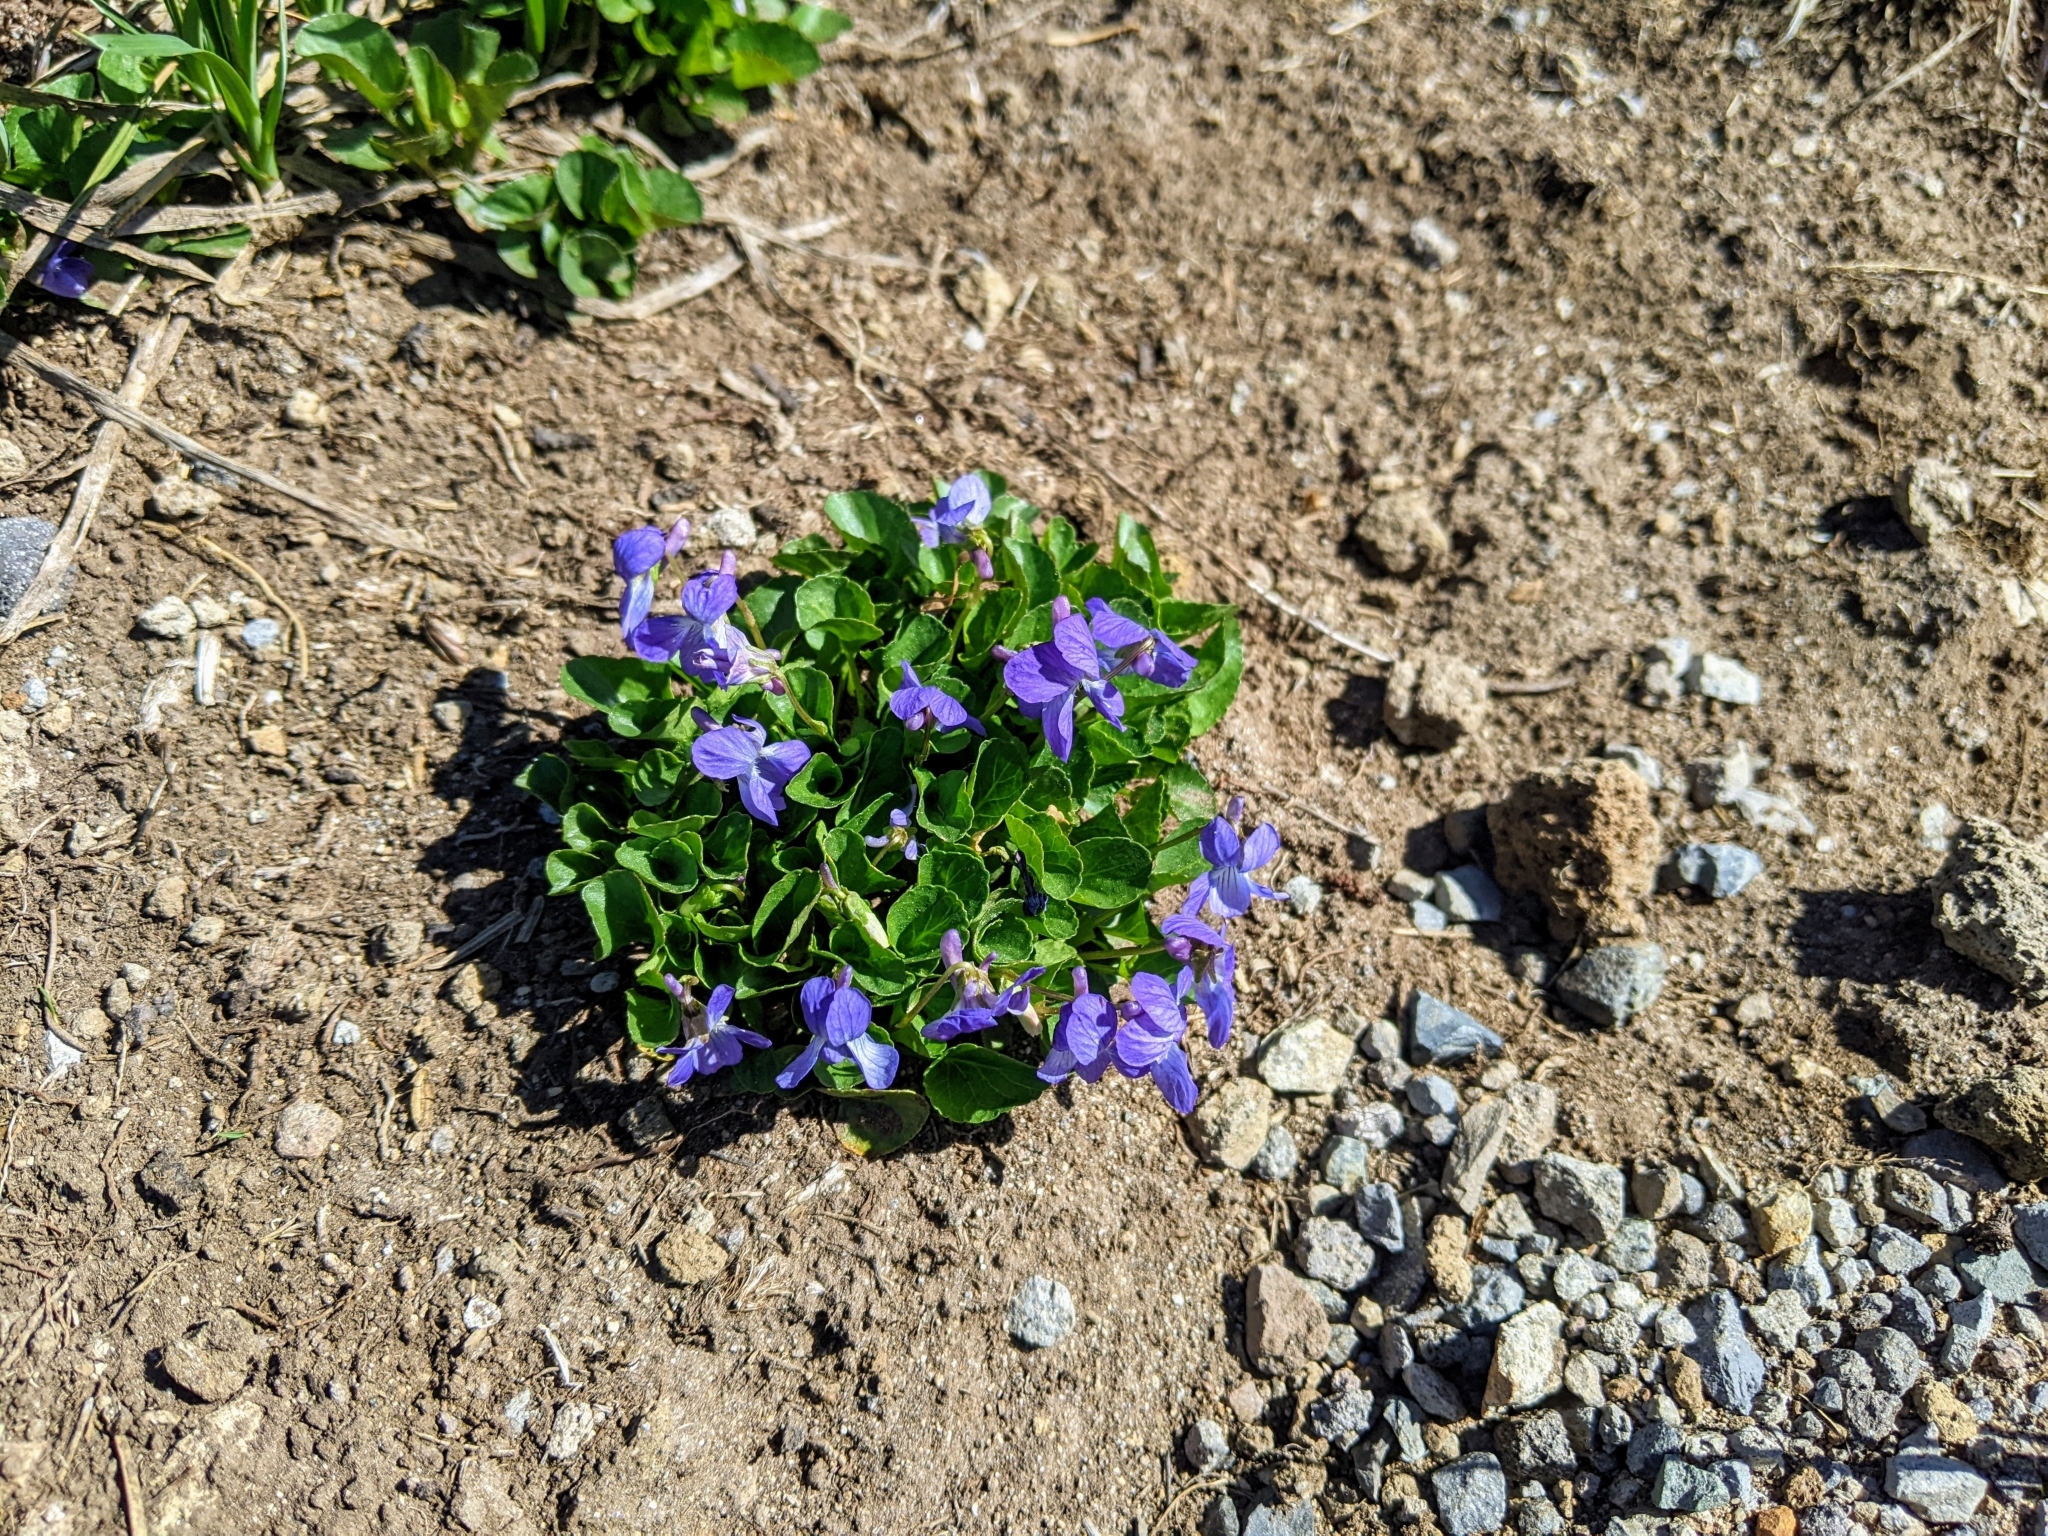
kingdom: Plantae
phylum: Tracheophyta
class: Magnoliopsida
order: Malpighiales
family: Violaceae
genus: Viola
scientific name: Viola adunca
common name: Sand violet
